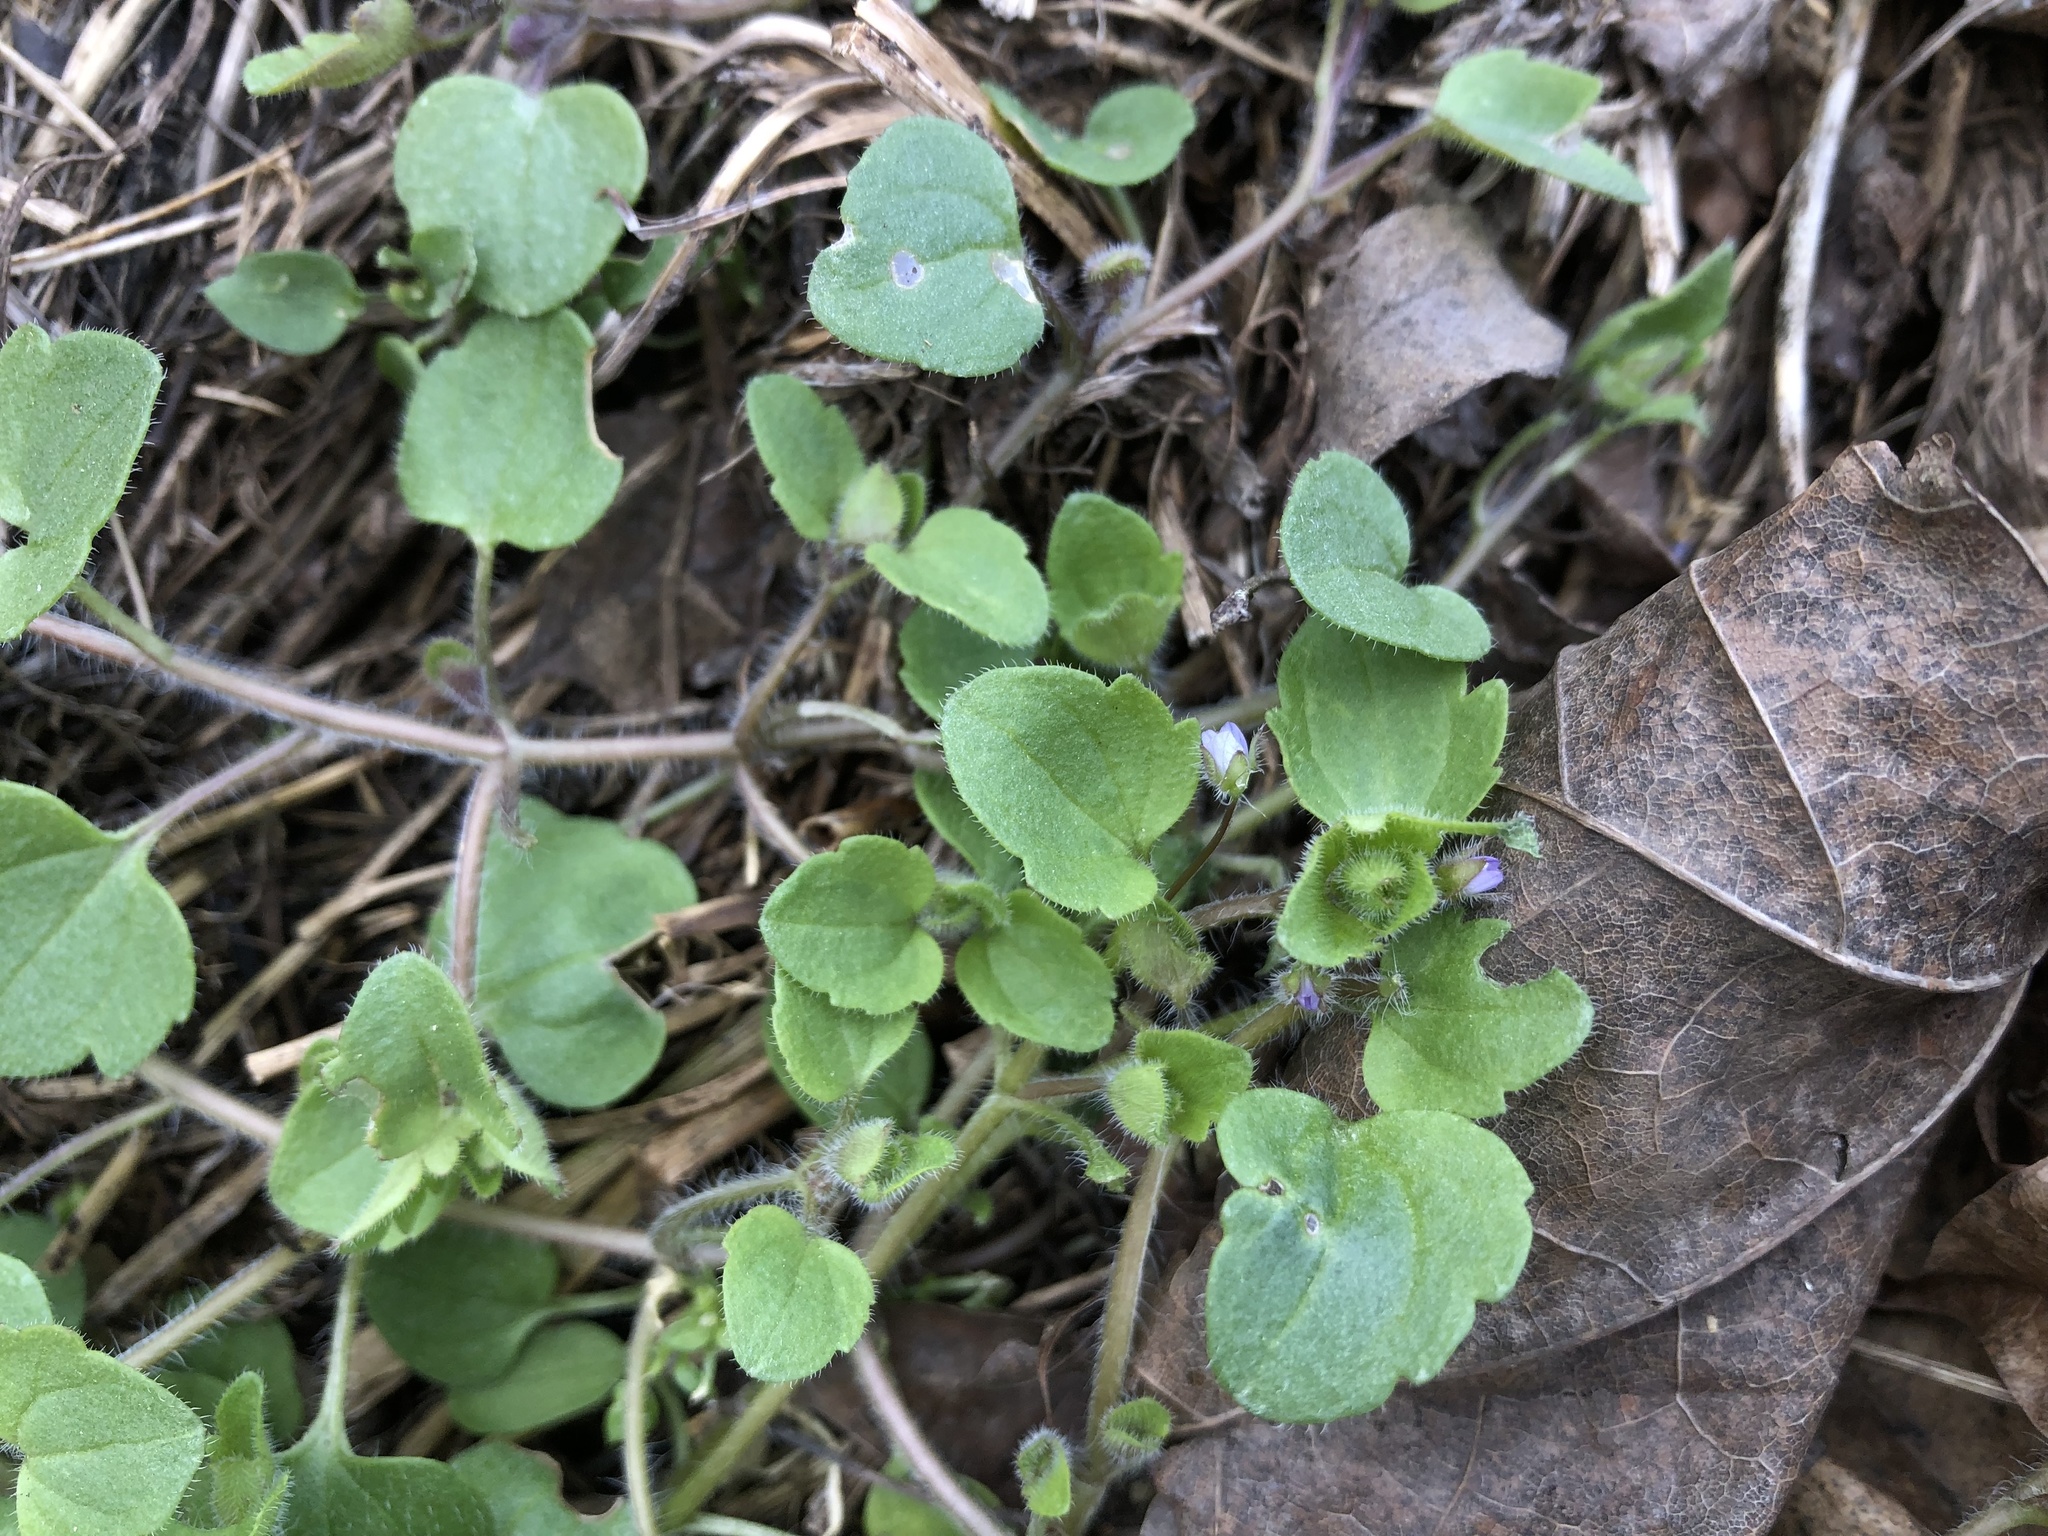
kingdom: Plantae
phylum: Tracheophyta
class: Magnoliopsida
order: Lamiales
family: Plantaginaceae
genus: Veronica
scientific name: Veronica sublobata
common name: False ivy-leaved speedwell
